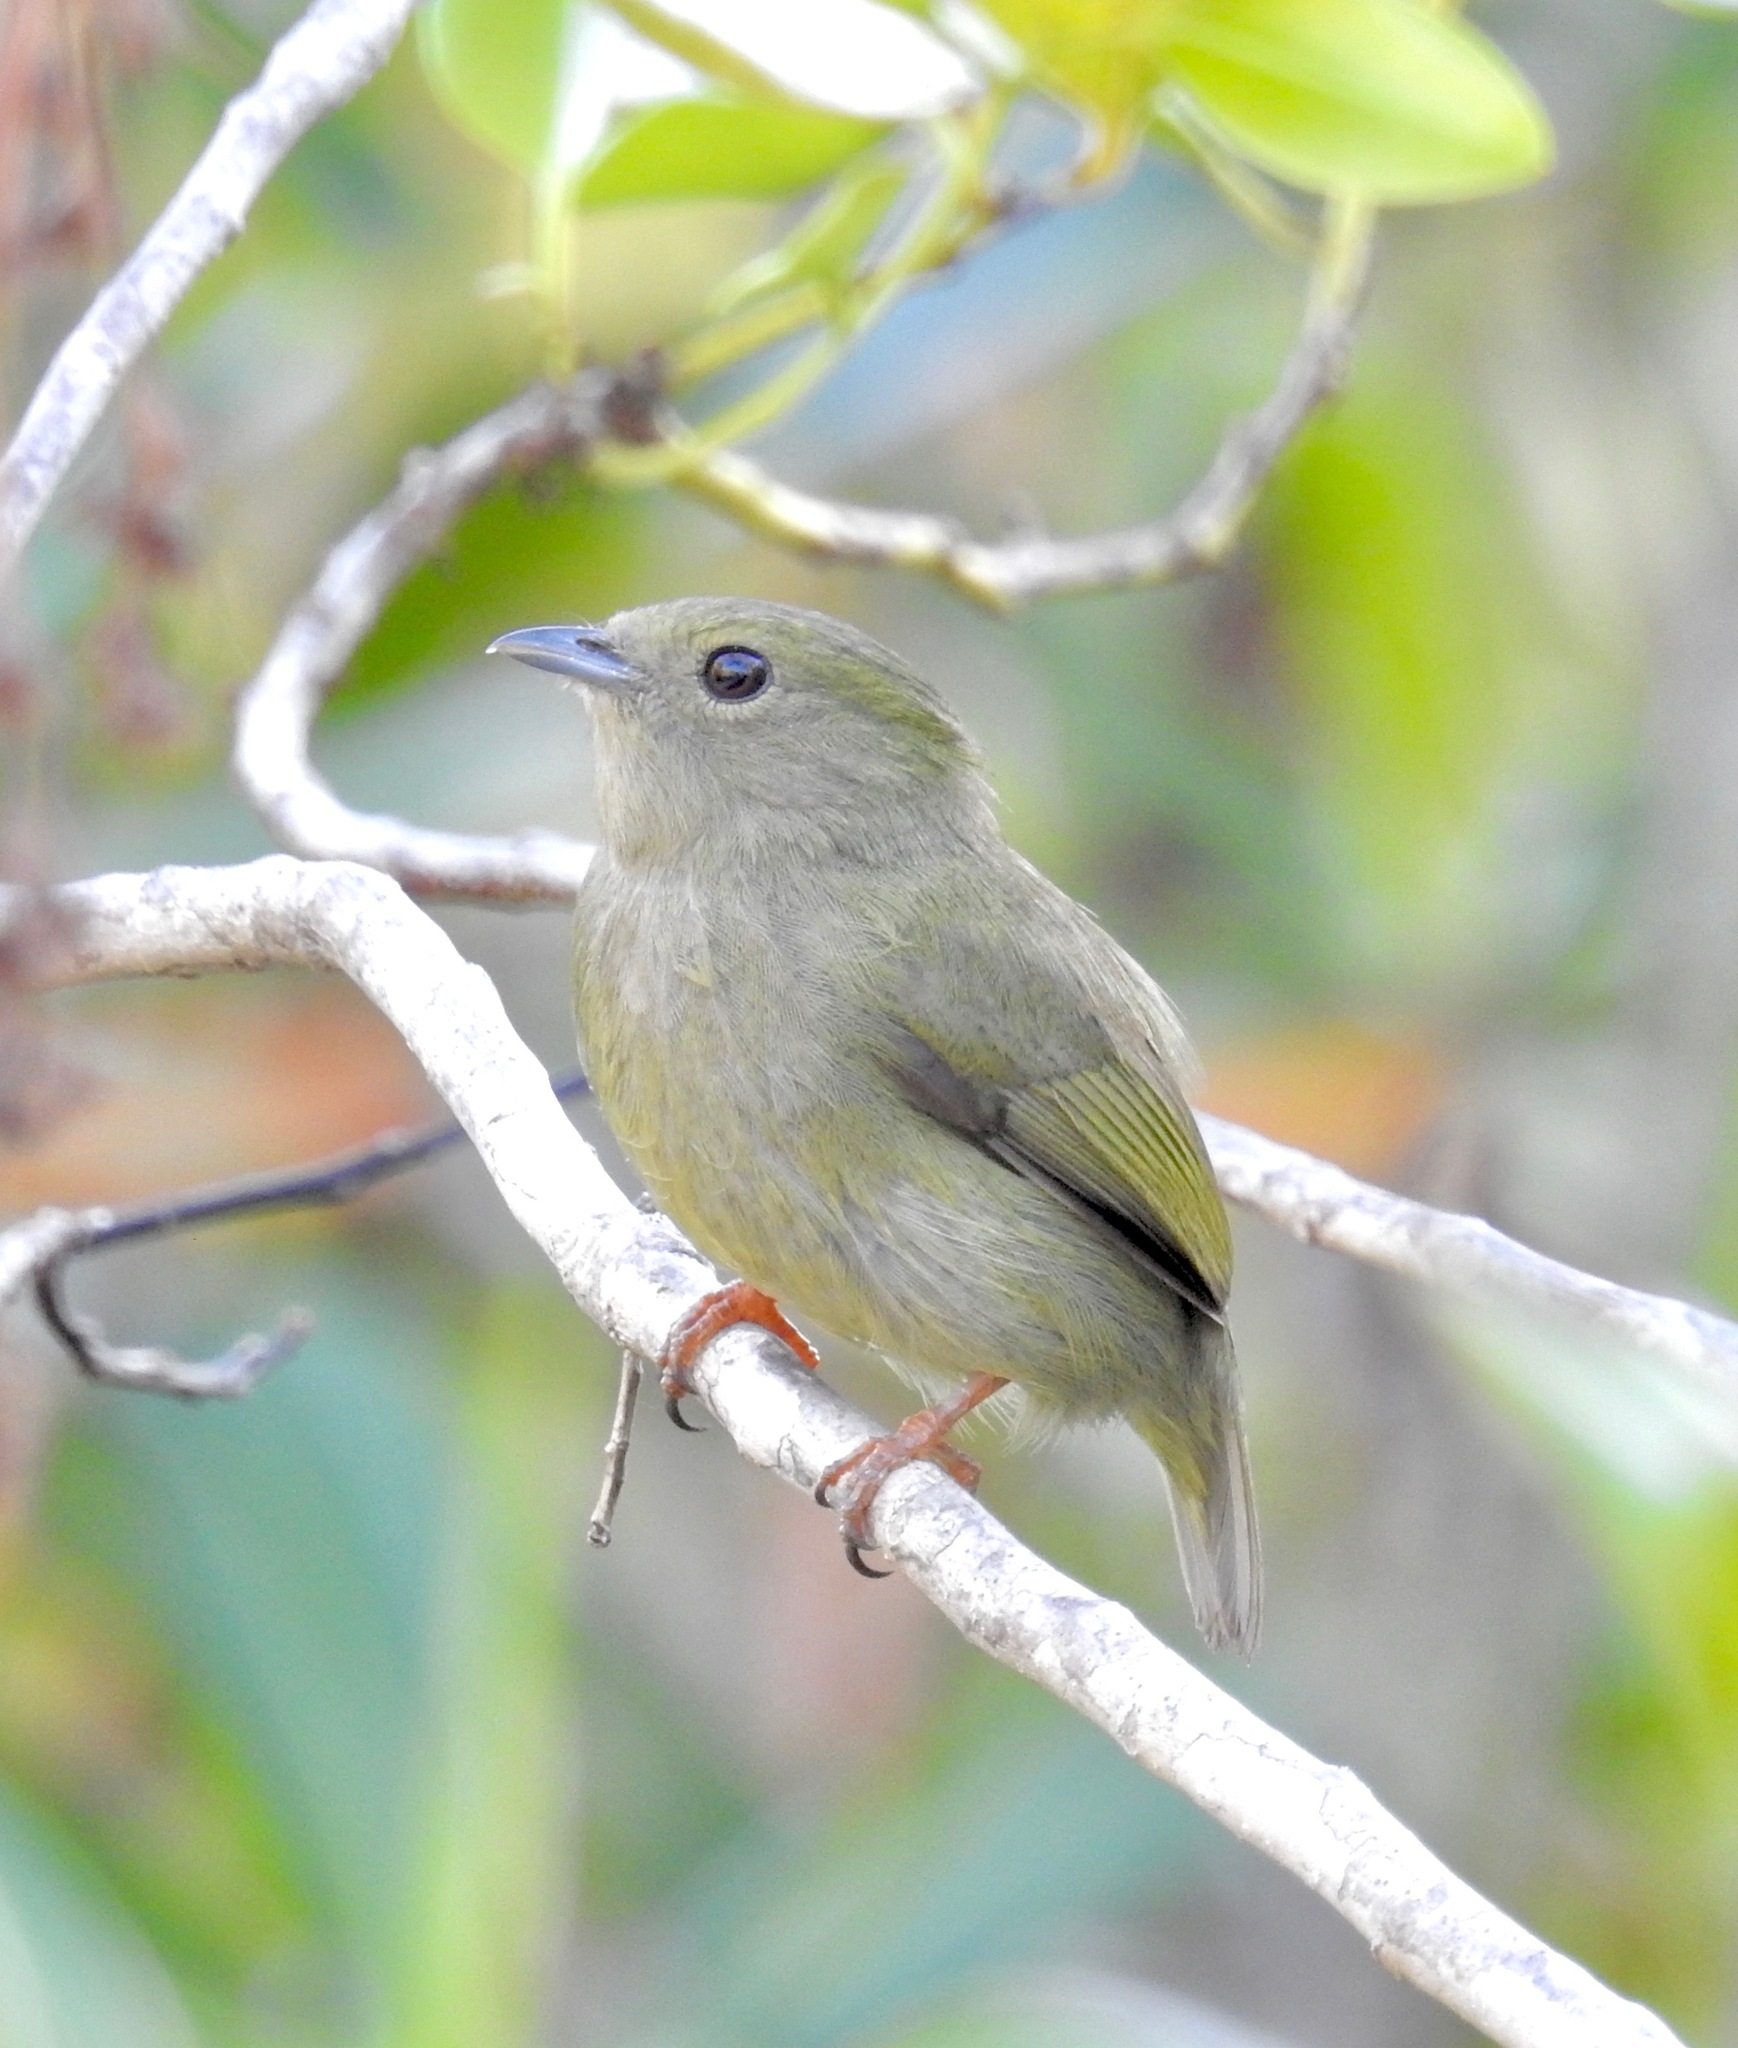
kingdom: Animalia
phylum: Chordata
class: Aves
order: Passeriformes
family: Pipridae
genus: Pipra
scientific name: Pipra rubrocapilla
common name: Red-headed manakin
